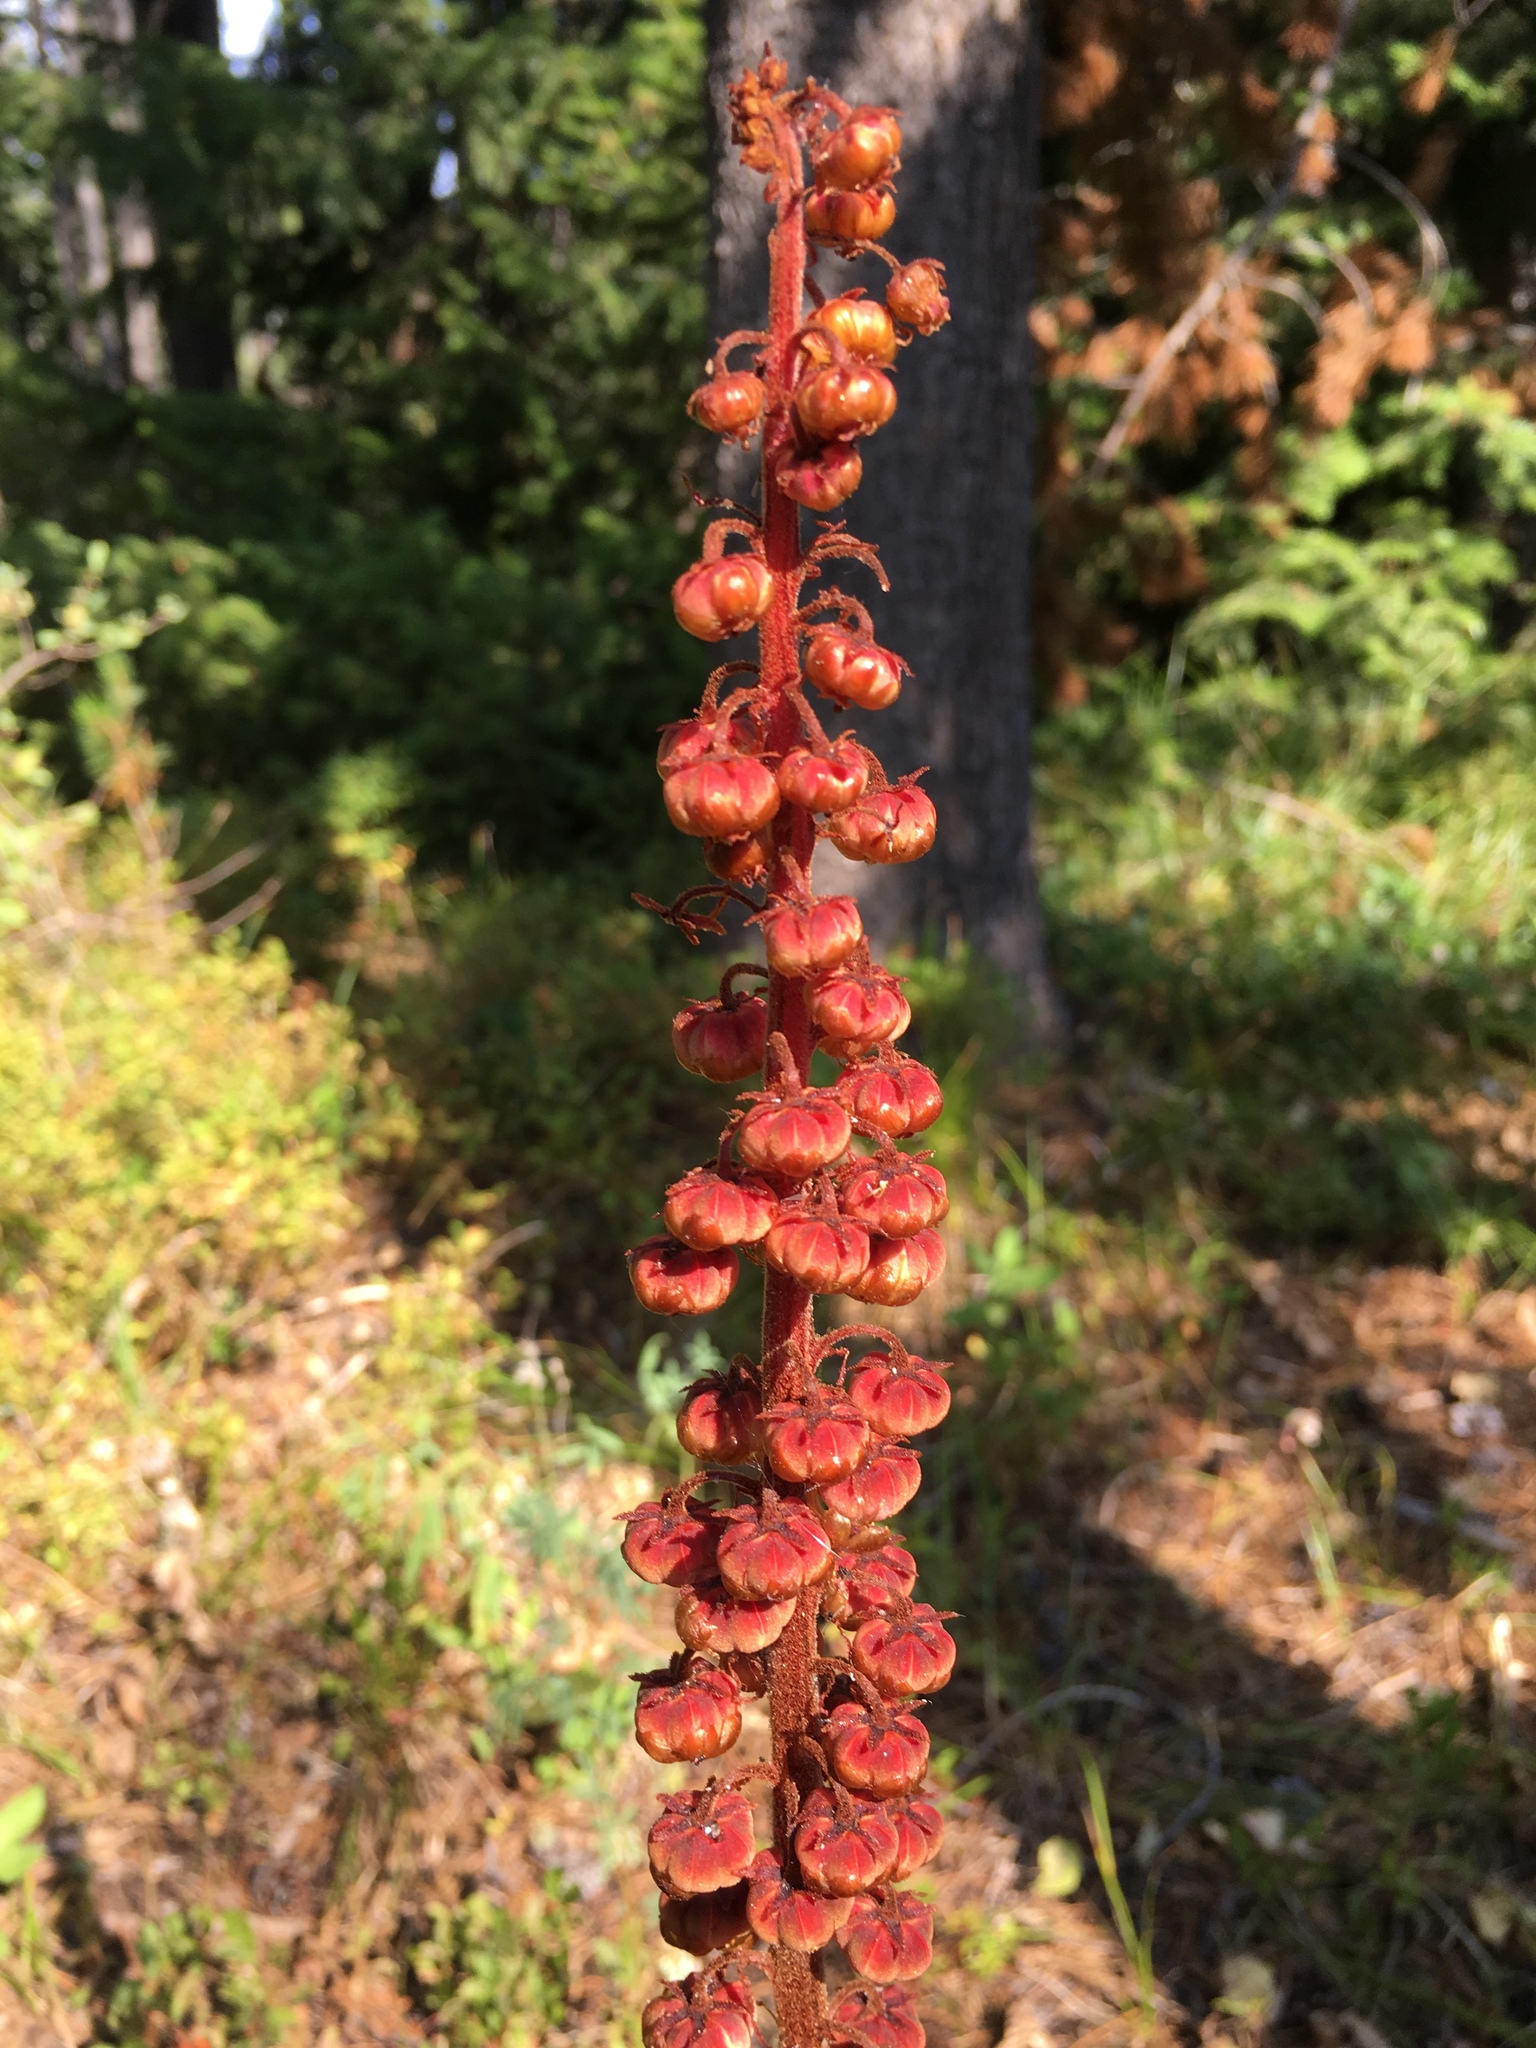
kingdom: Plantae
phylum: Tracheophyta
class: Magnoliopsida
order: Ericales
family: Ericaceae
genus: Pterospora
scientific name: Pterospora andromedea
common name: Giant bird's-nest
